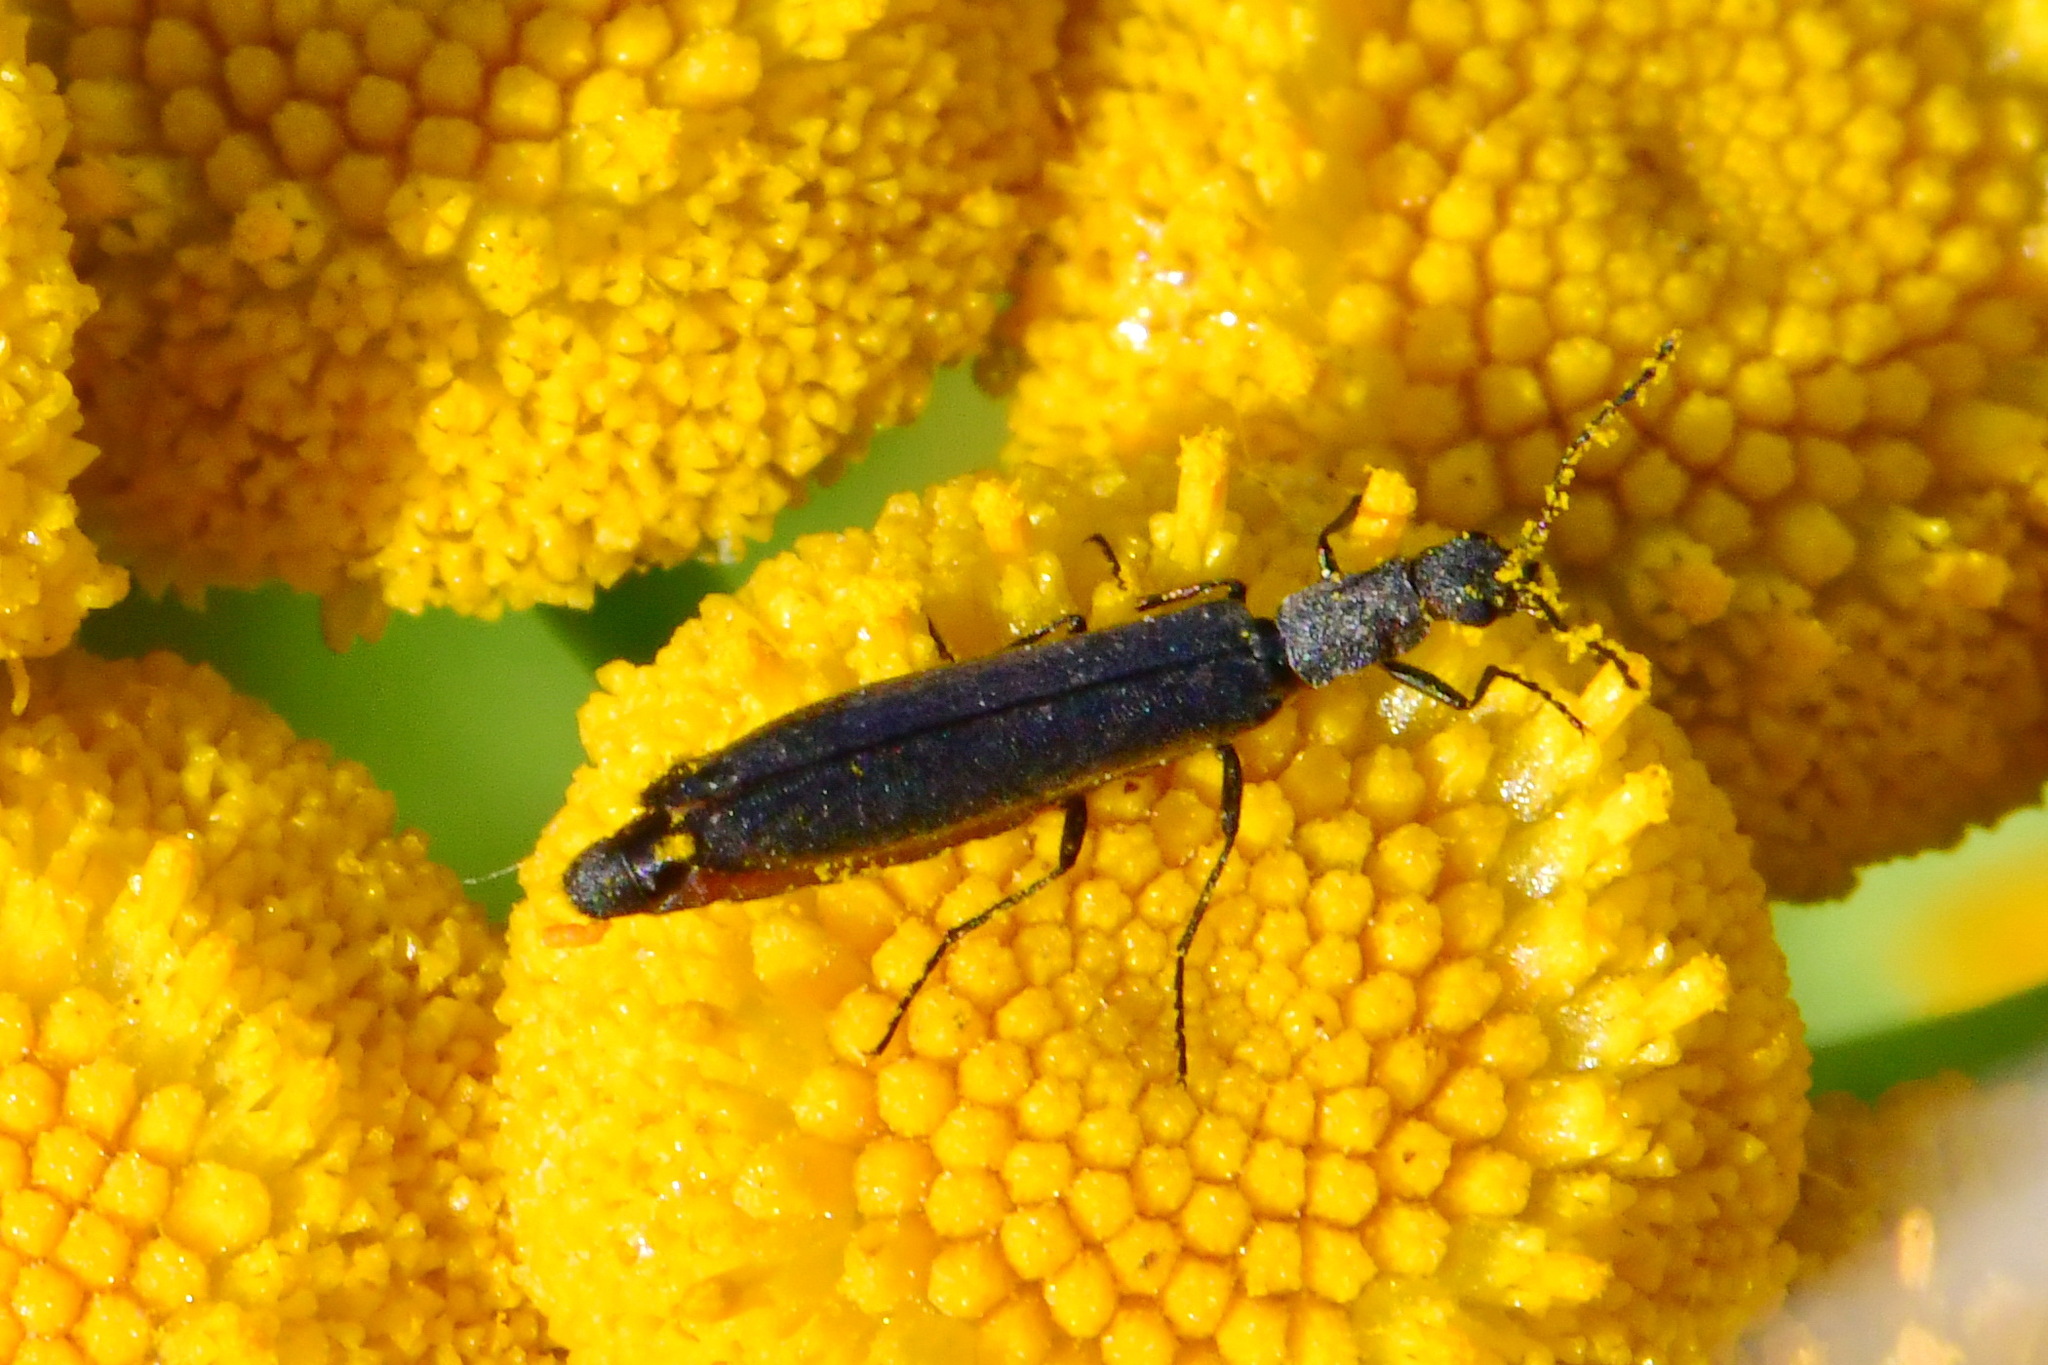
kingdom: Animalia
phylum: Arthropoda
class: Insecta
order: Coleoptera
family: Melyridae
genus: Dolichosoma
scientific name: Dolichosoma lineare
